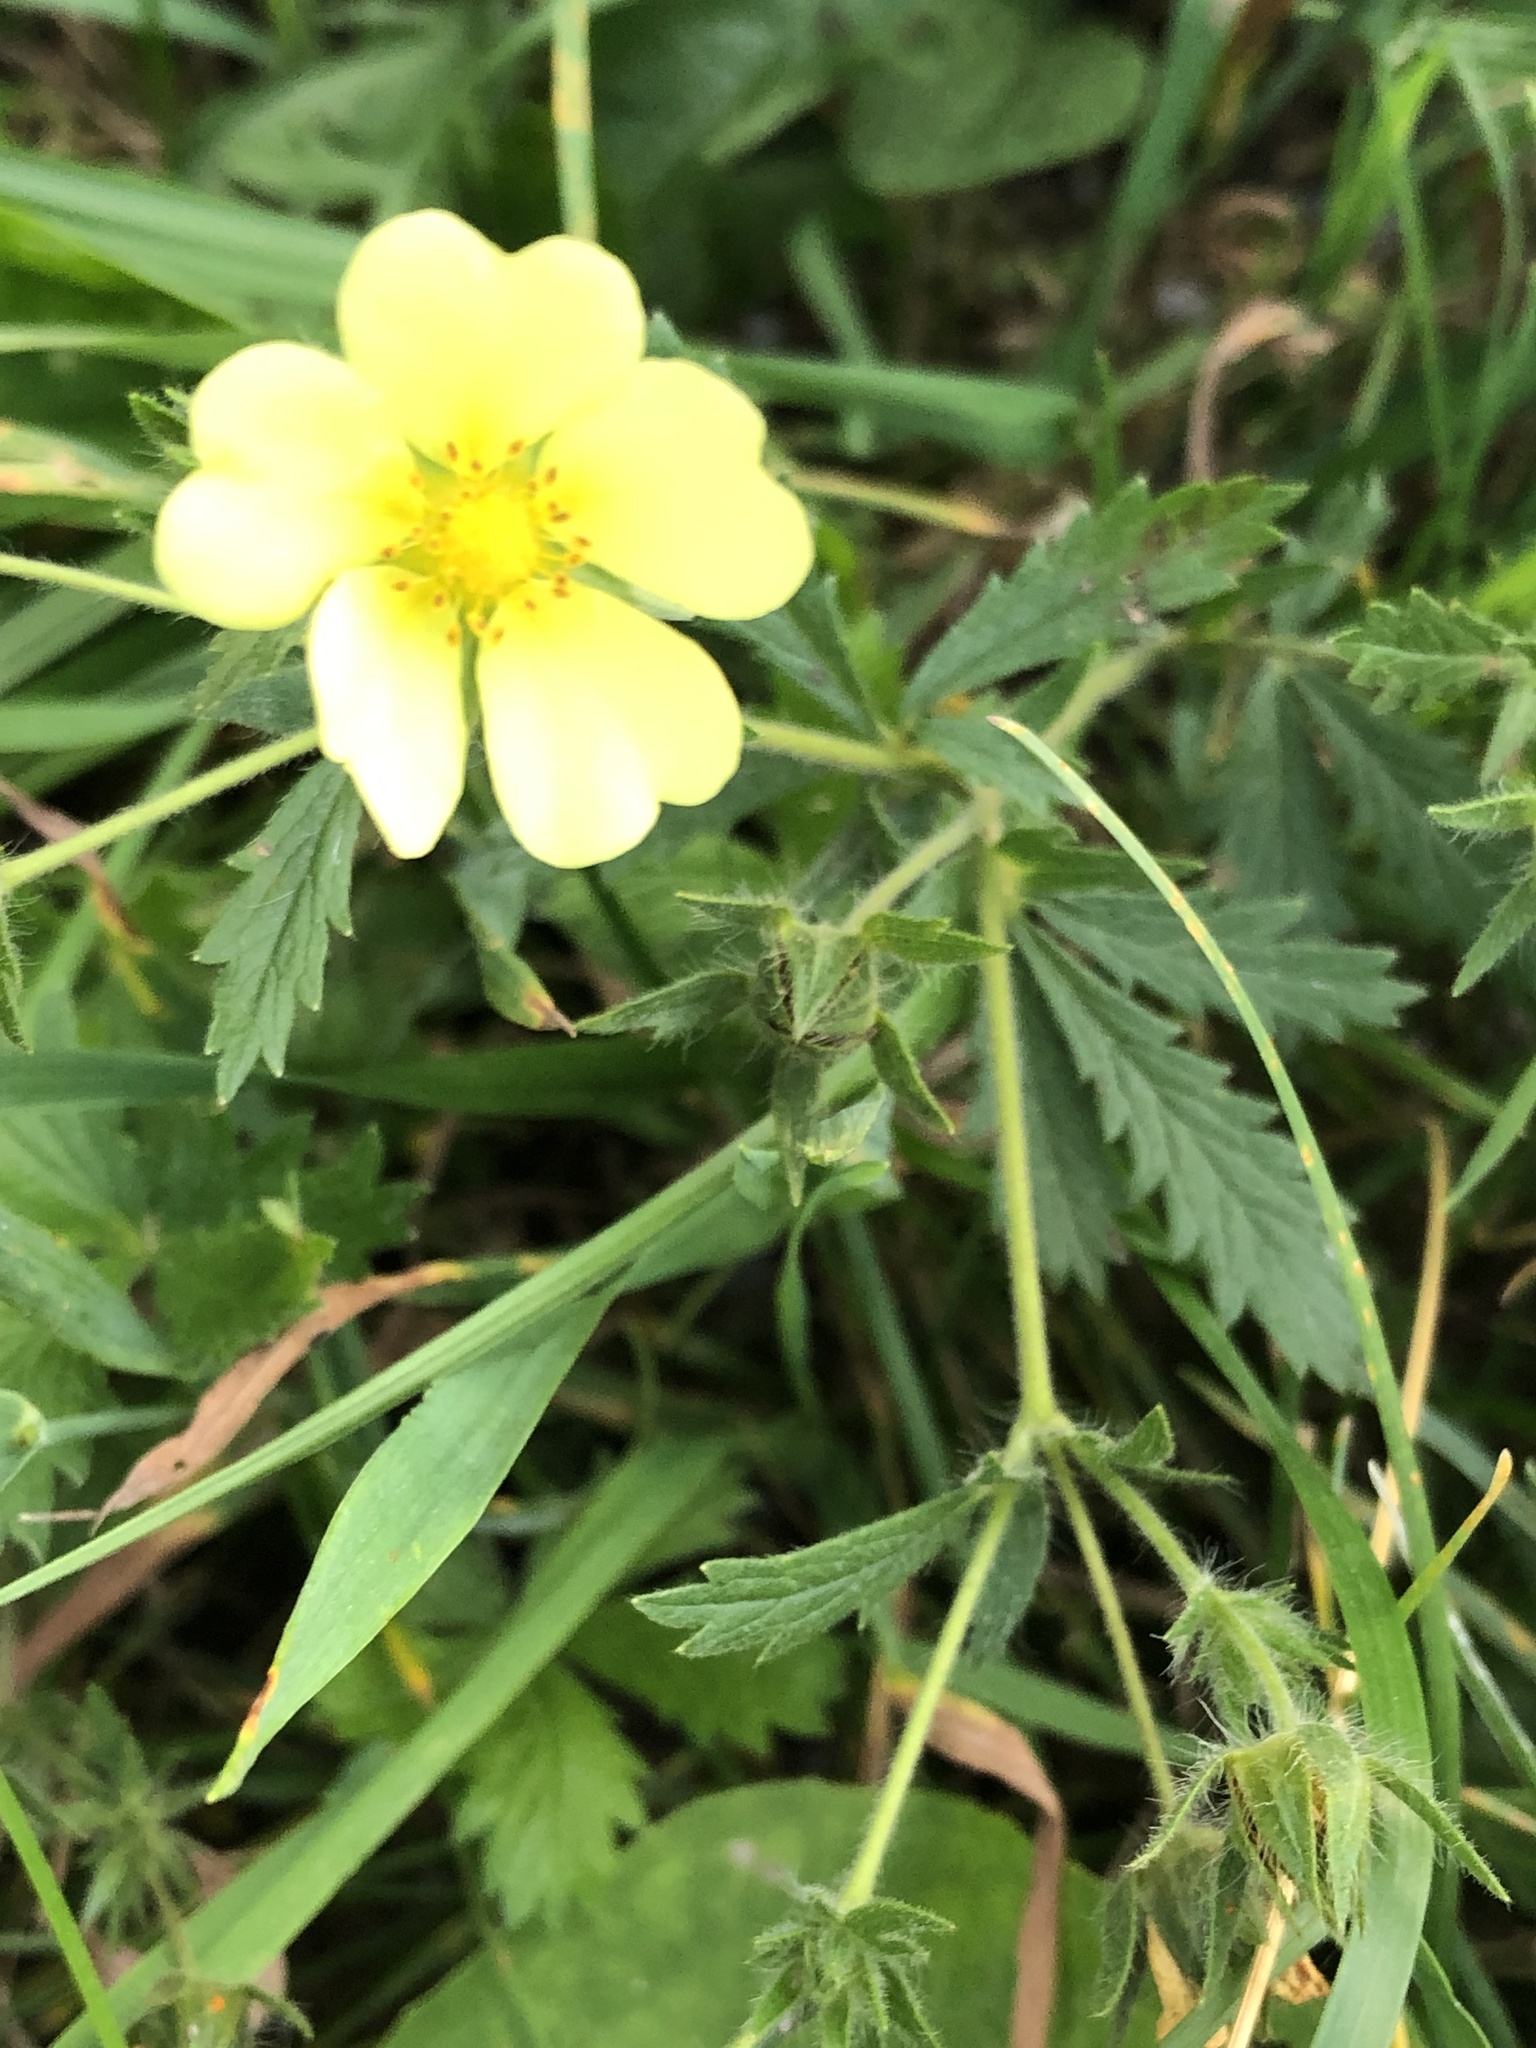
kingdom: Plantae
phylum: Tracheophyta
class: Magnoliopsida
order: Rosales
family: Rosaceae
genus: Potentilla
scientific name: Potentilla recta
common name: Sulphur cinquefoil
